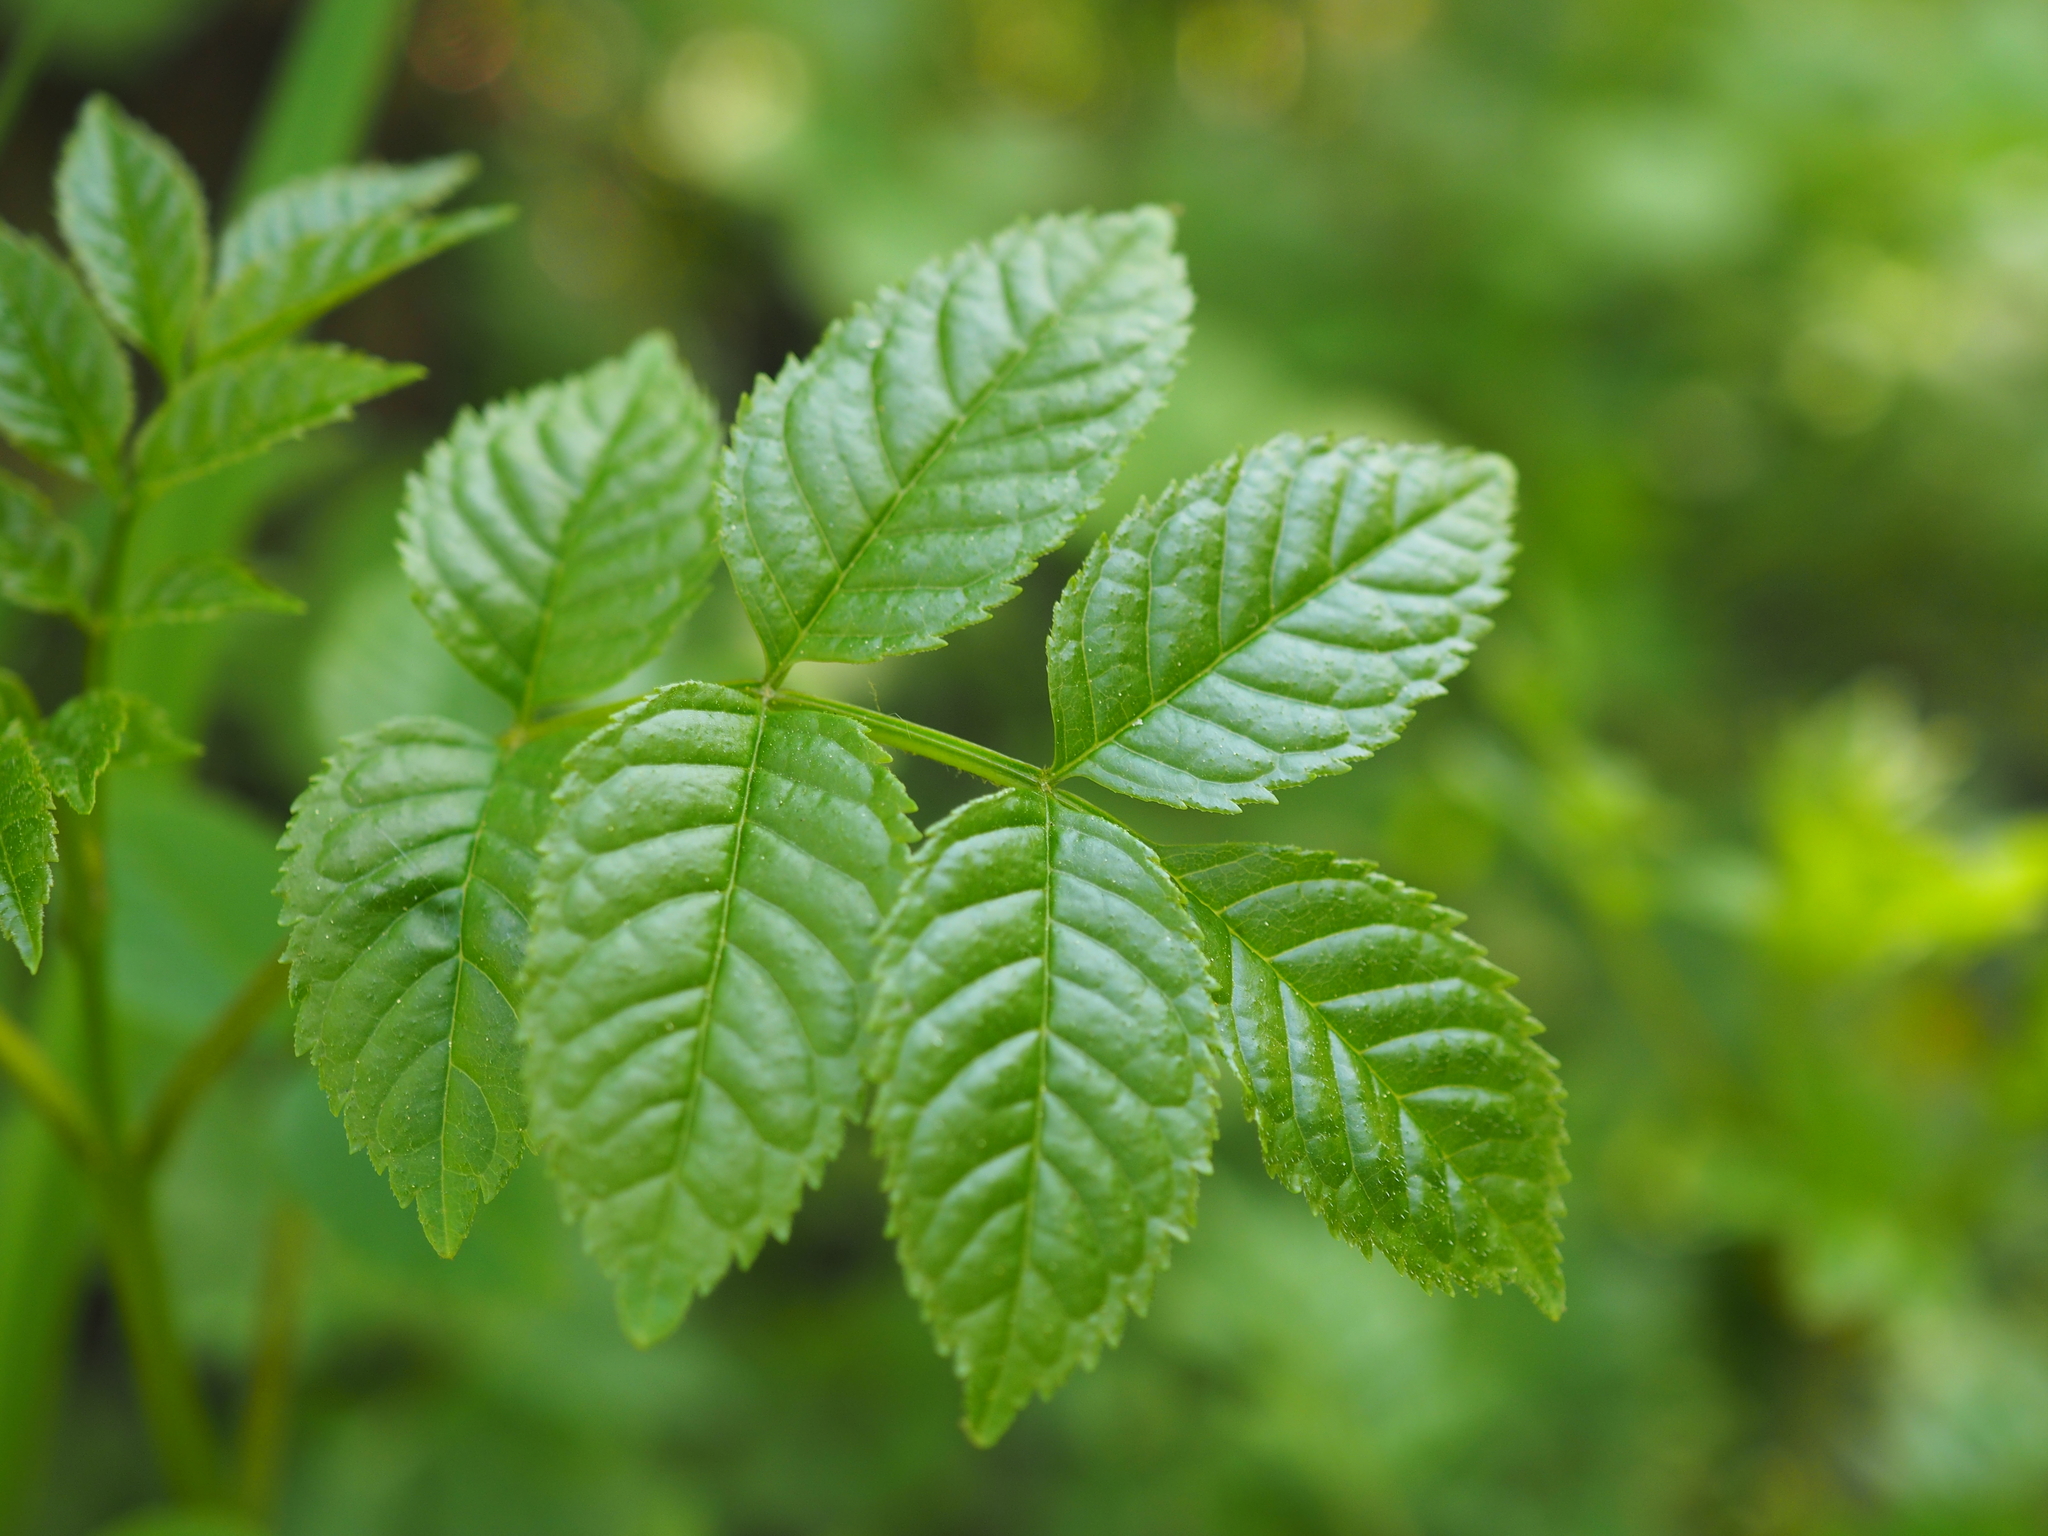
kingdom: Plantae
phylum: Tracheophyta
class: Magnoliopsida
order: Lamiales
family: Oleaceae
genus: Fraxinus
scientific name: Fraxinus excelsior
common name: European ash
